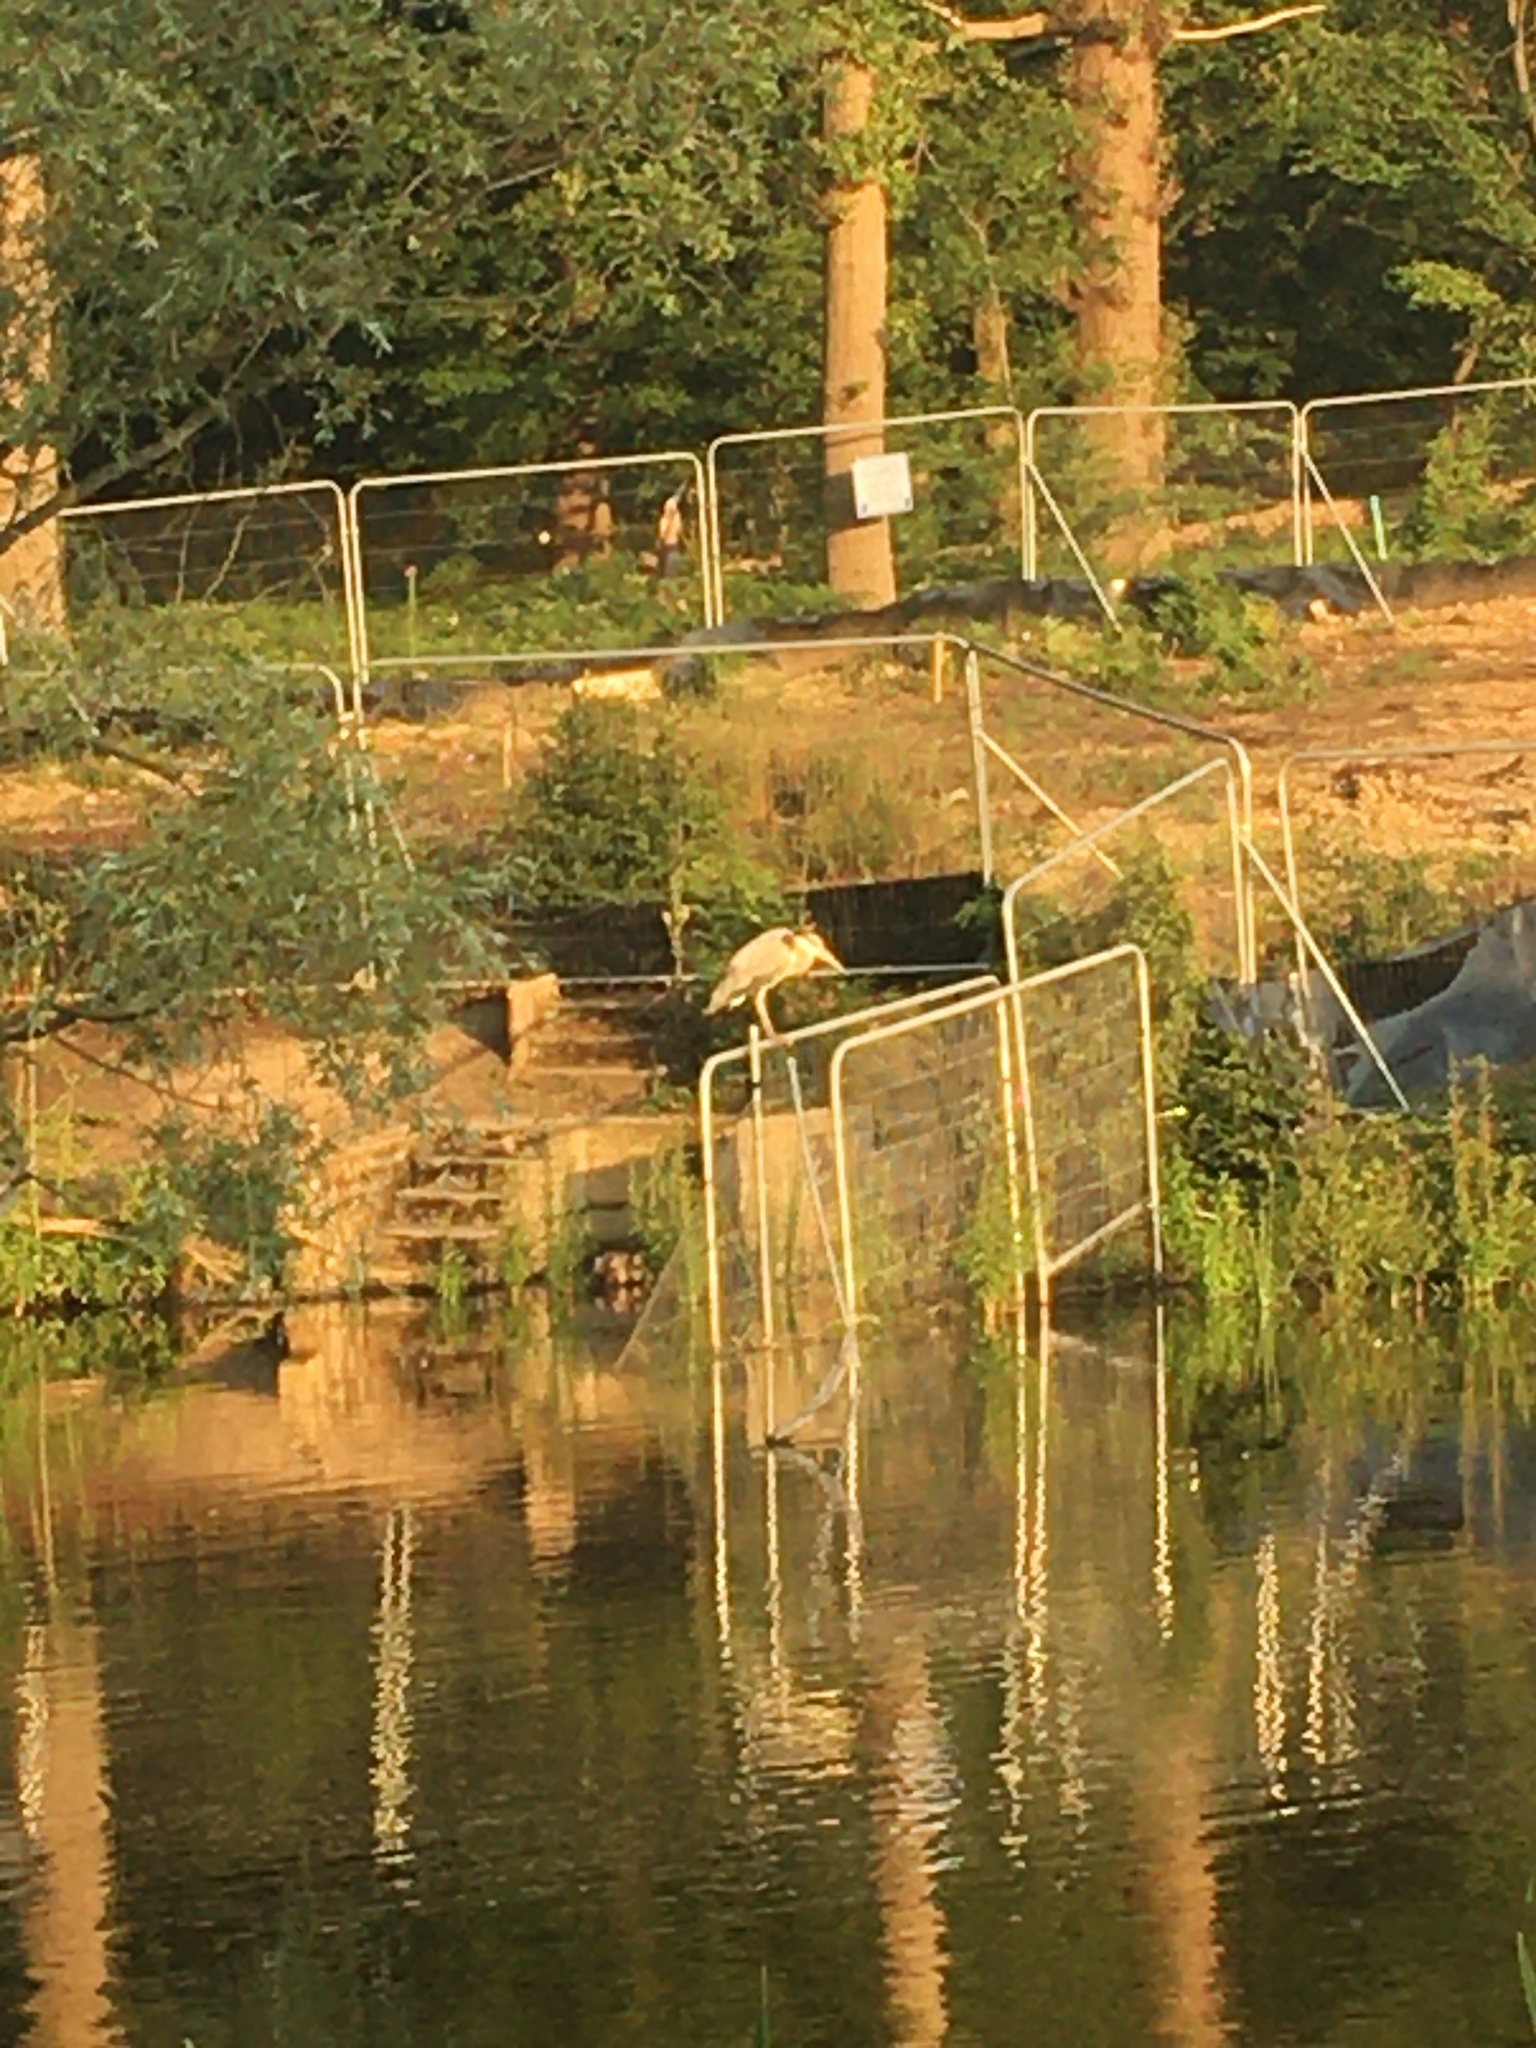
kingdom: Animalia
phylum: Chordata
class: Aves
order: Pelecaniformes
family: Ardeidae
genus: Ardea
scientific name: Ardea cinerea
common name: Grey heron
